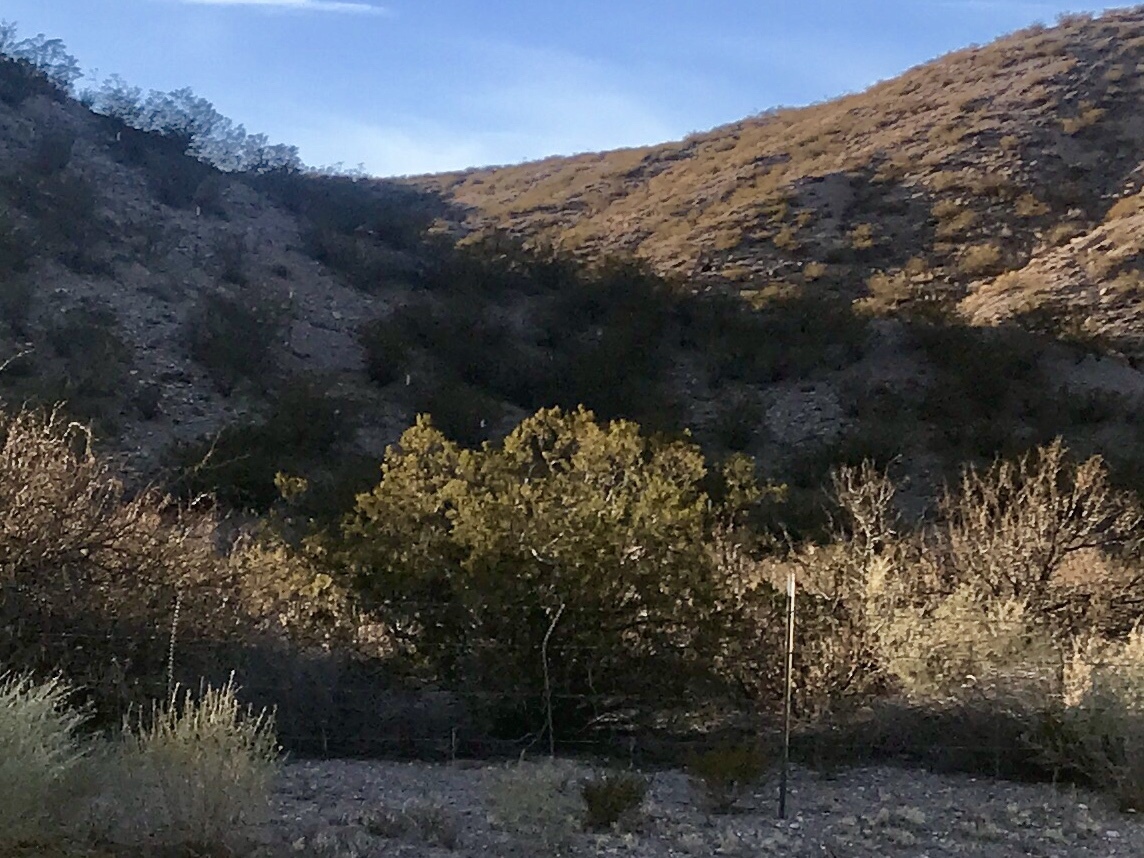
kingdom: Plantae
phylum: Tracheophyta
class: Magnoliopsida
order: Zygophyllales
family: Zygophyllaceae
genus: Larrea
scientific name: Larrea tridentata
